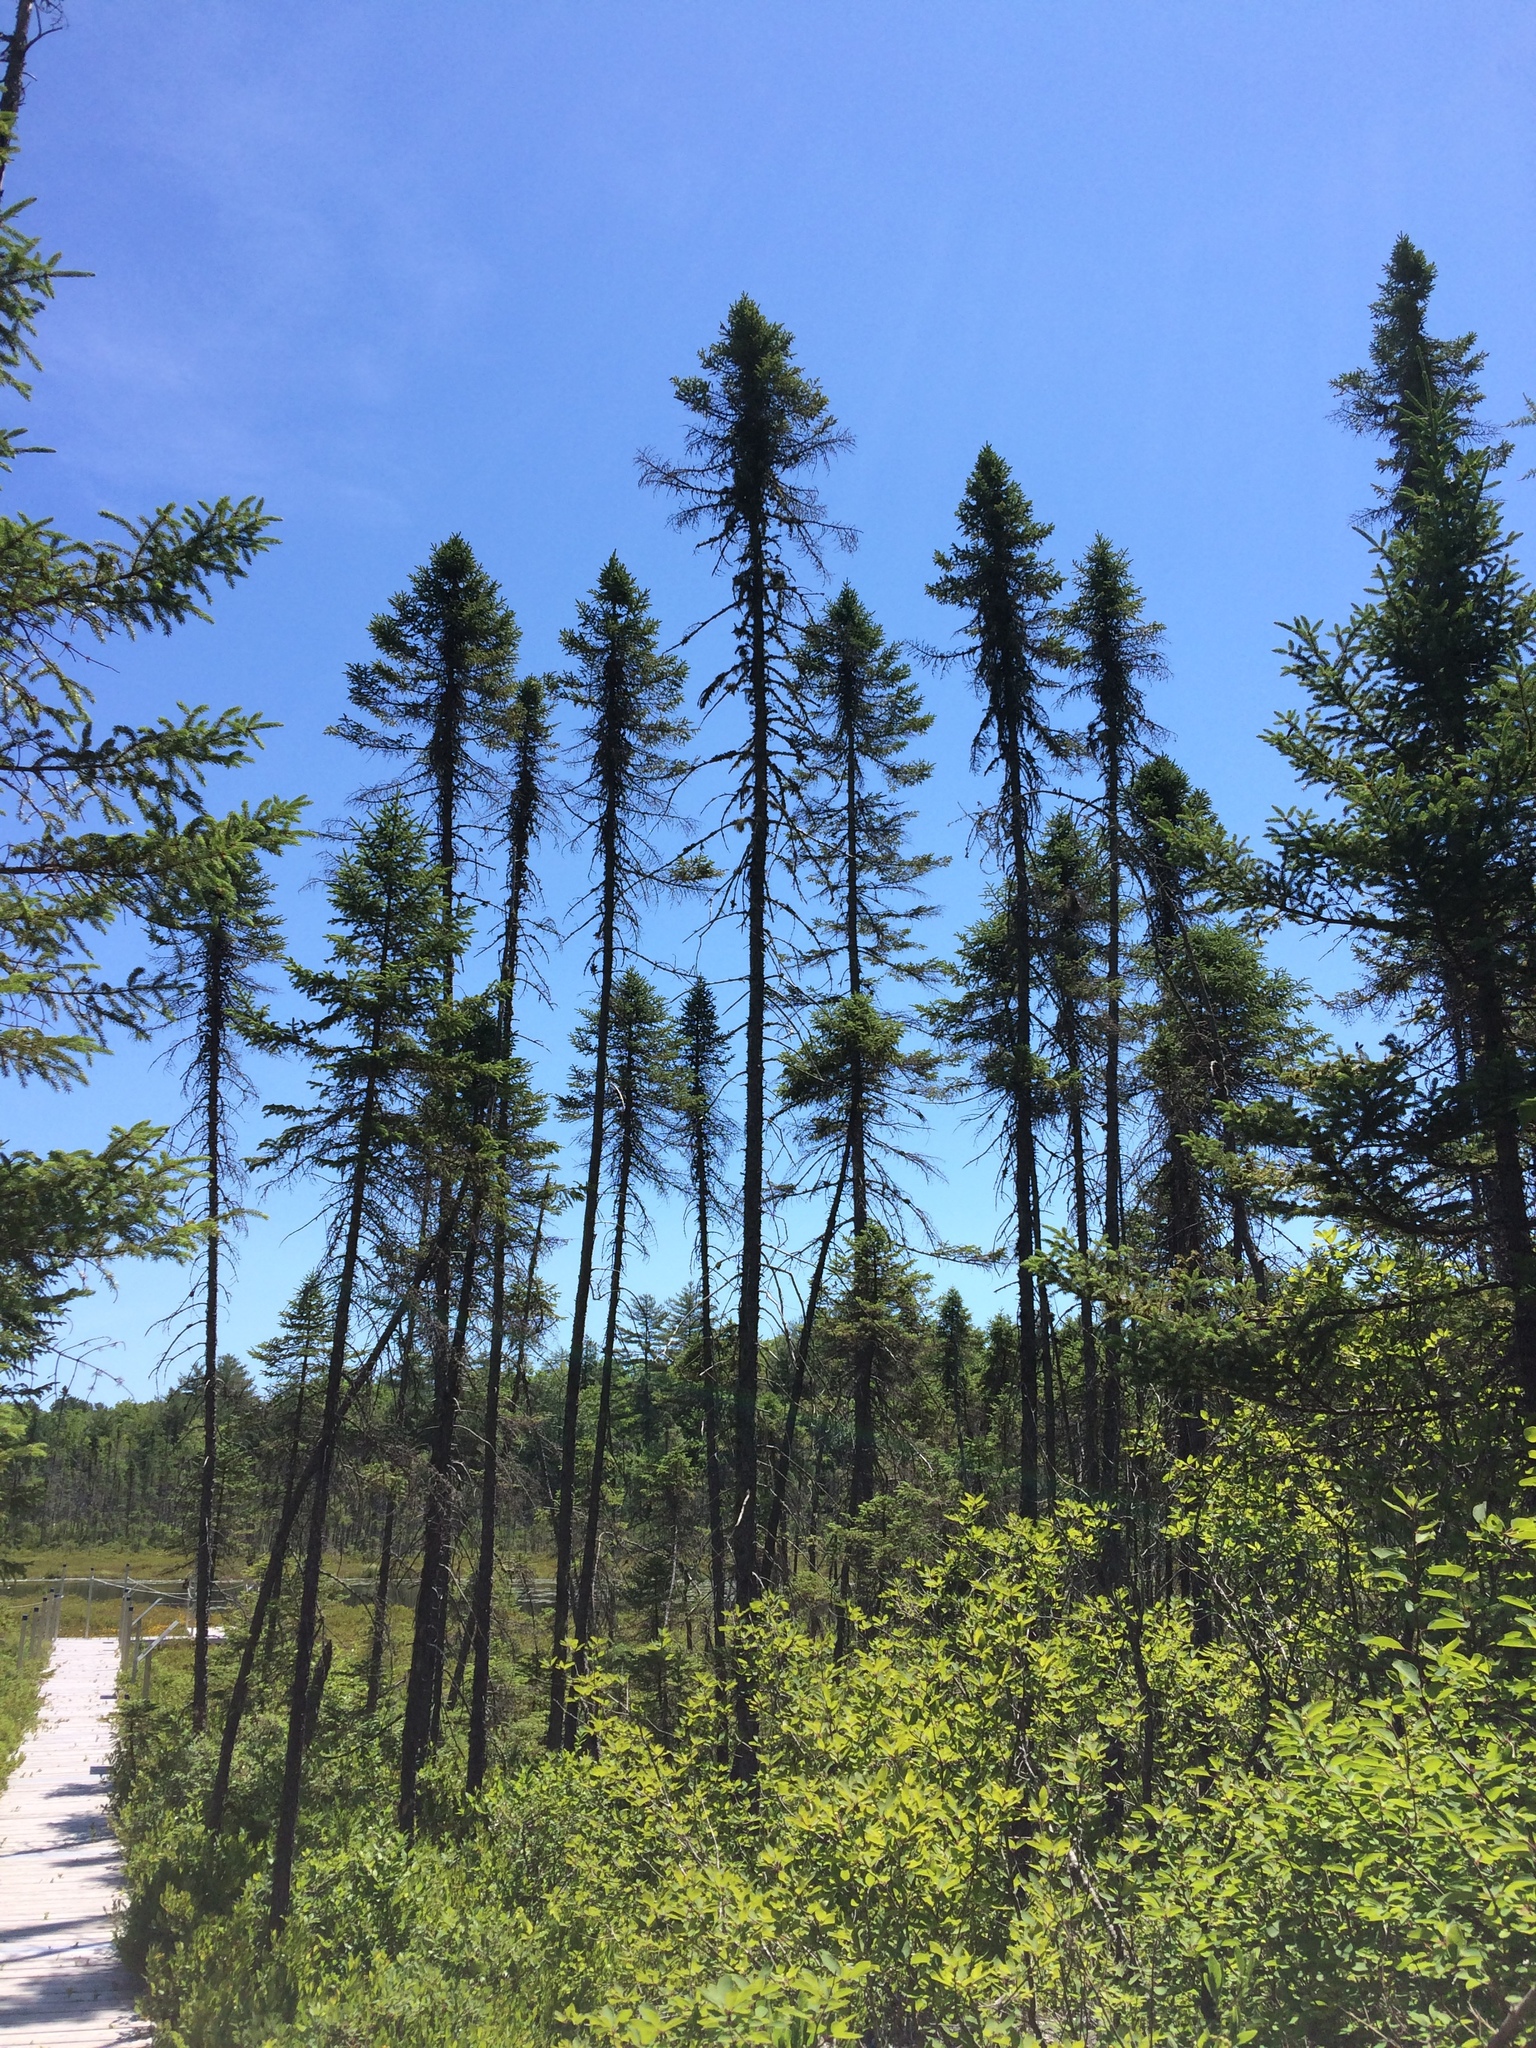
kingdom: Plantae
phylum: Tracheophyta
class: Pinopsida
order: Pinales
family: Pinaceae
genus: Picea
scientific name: Picea mariana
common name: Black spruce
